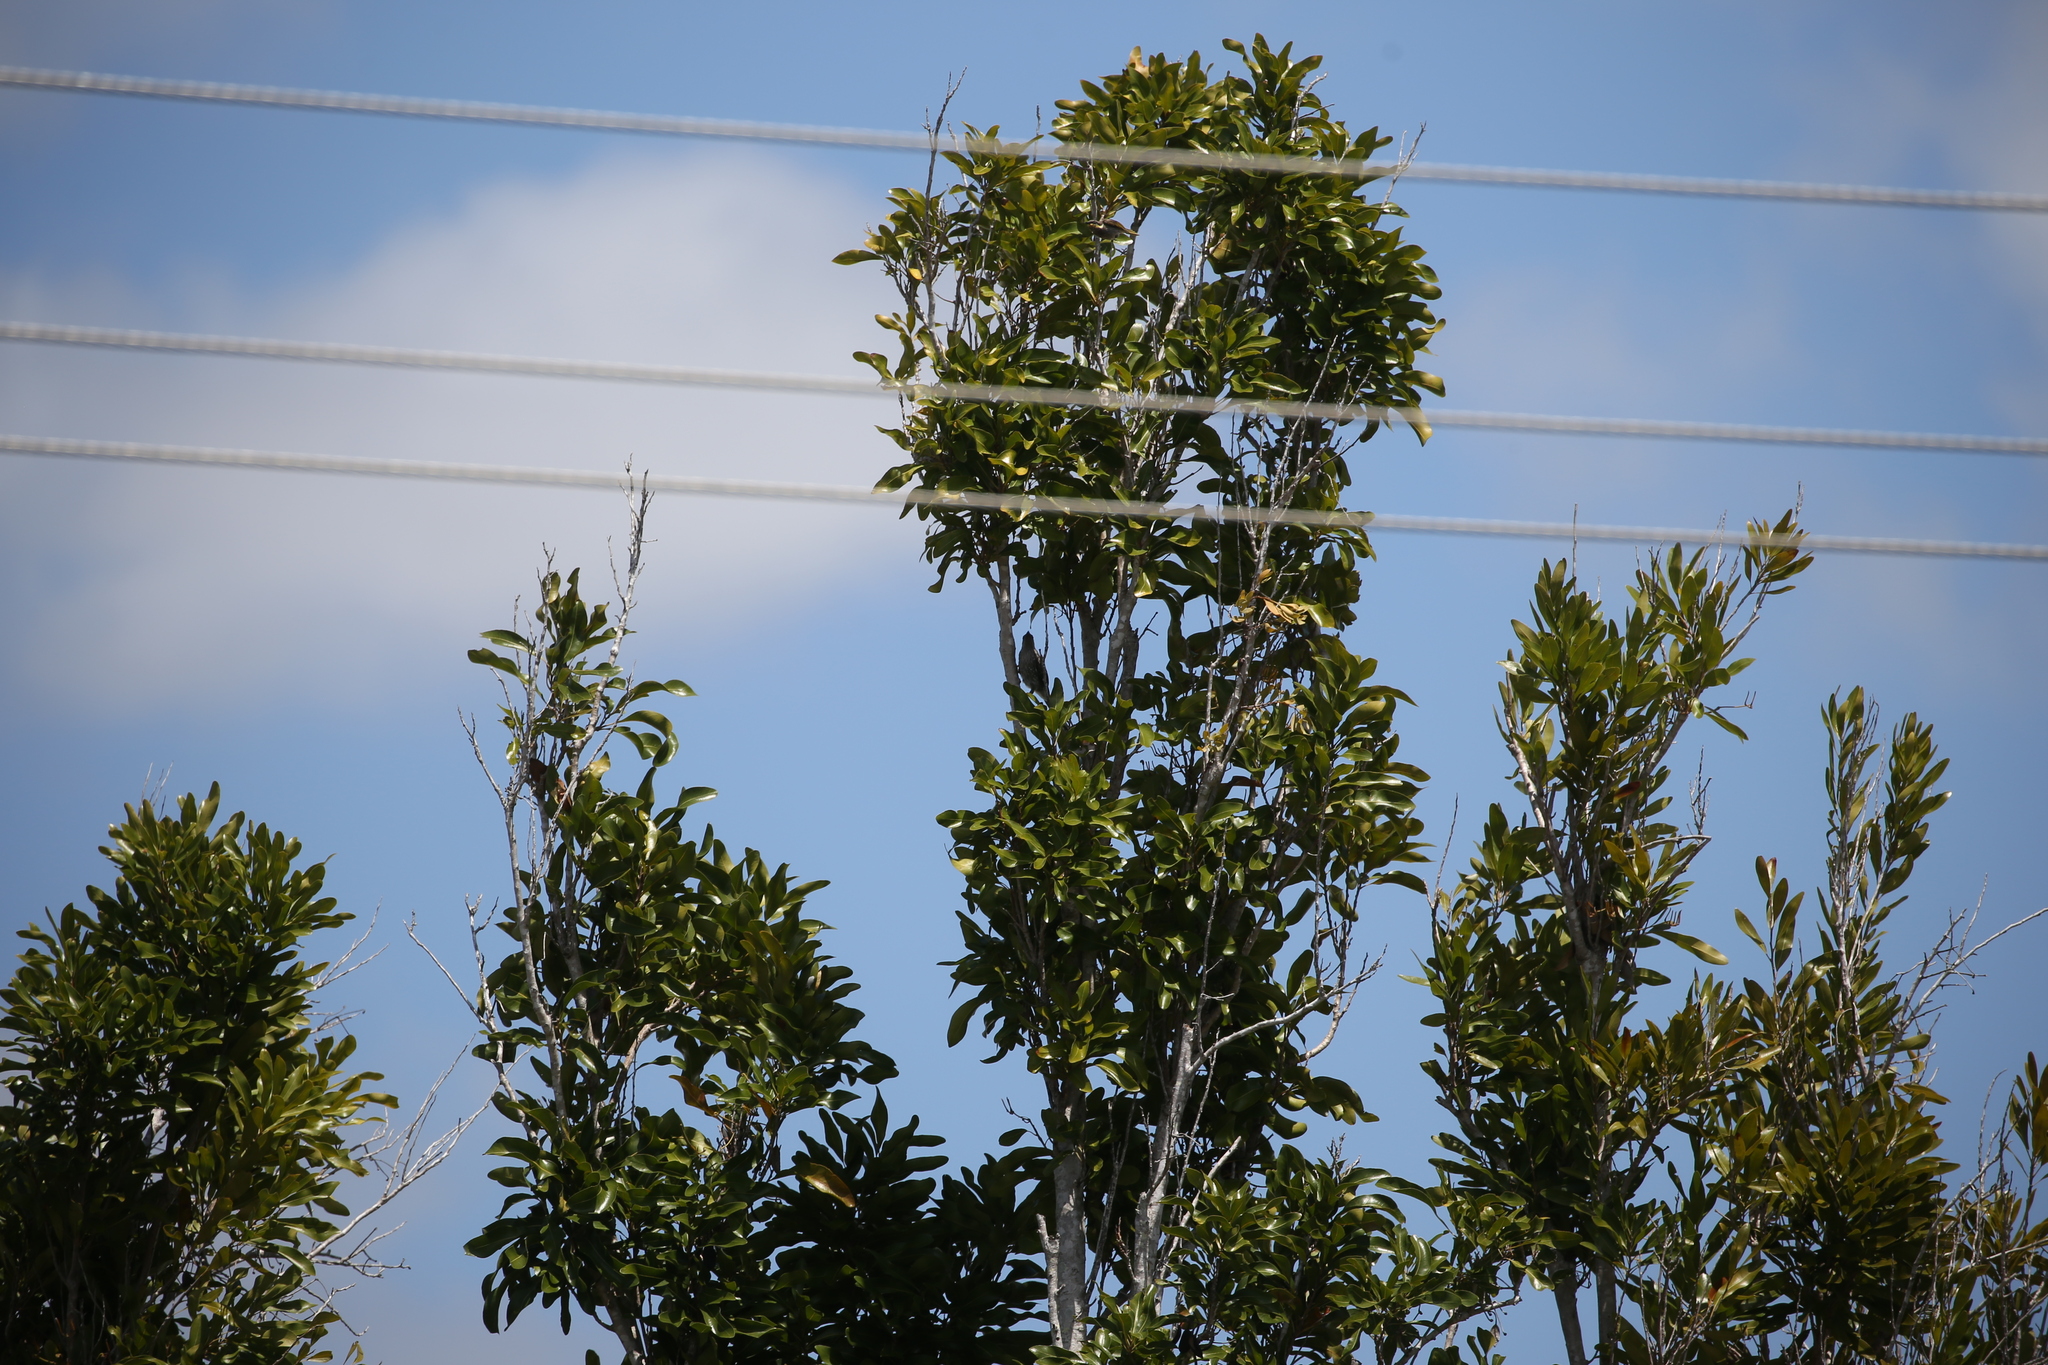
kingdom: Animalia
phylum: Chordata
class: Aves
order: Passeriformes
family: Meliphagidae
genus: Anthochaera
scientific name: Anthochaera chrysoptera
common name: Little wattlebird
